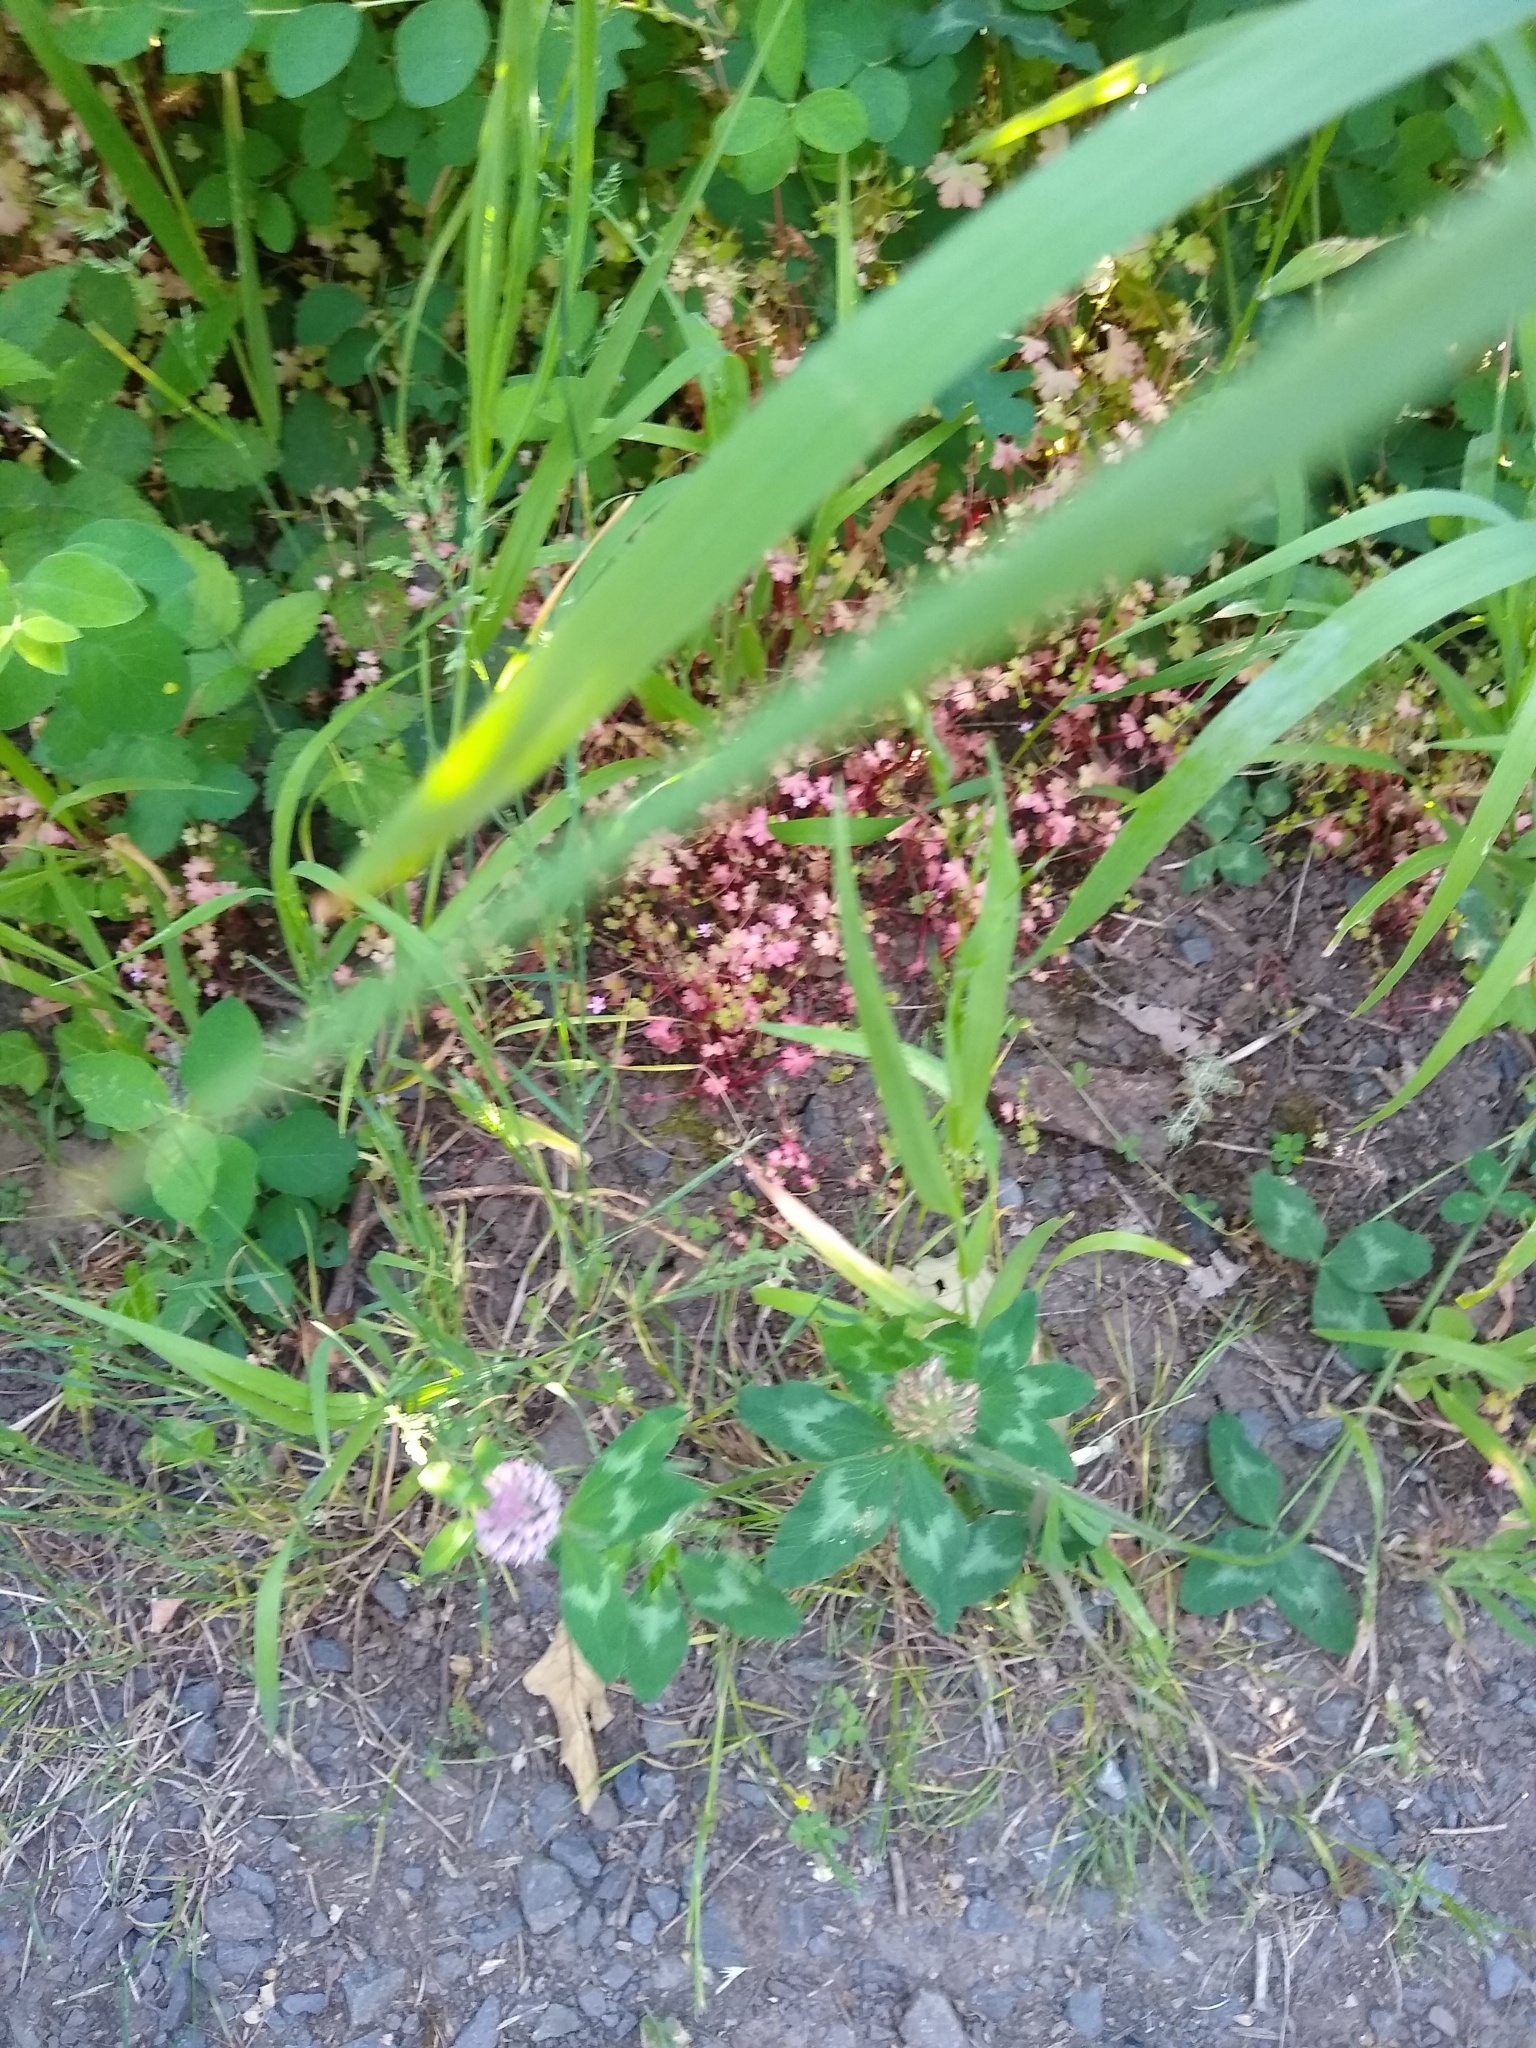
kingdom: Plantae
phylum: Tracheophyta
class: Magnoliopsida
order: Fabales
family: Fabaceae
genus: Trifolium
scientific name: Trifolium pratense
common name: Red clover
